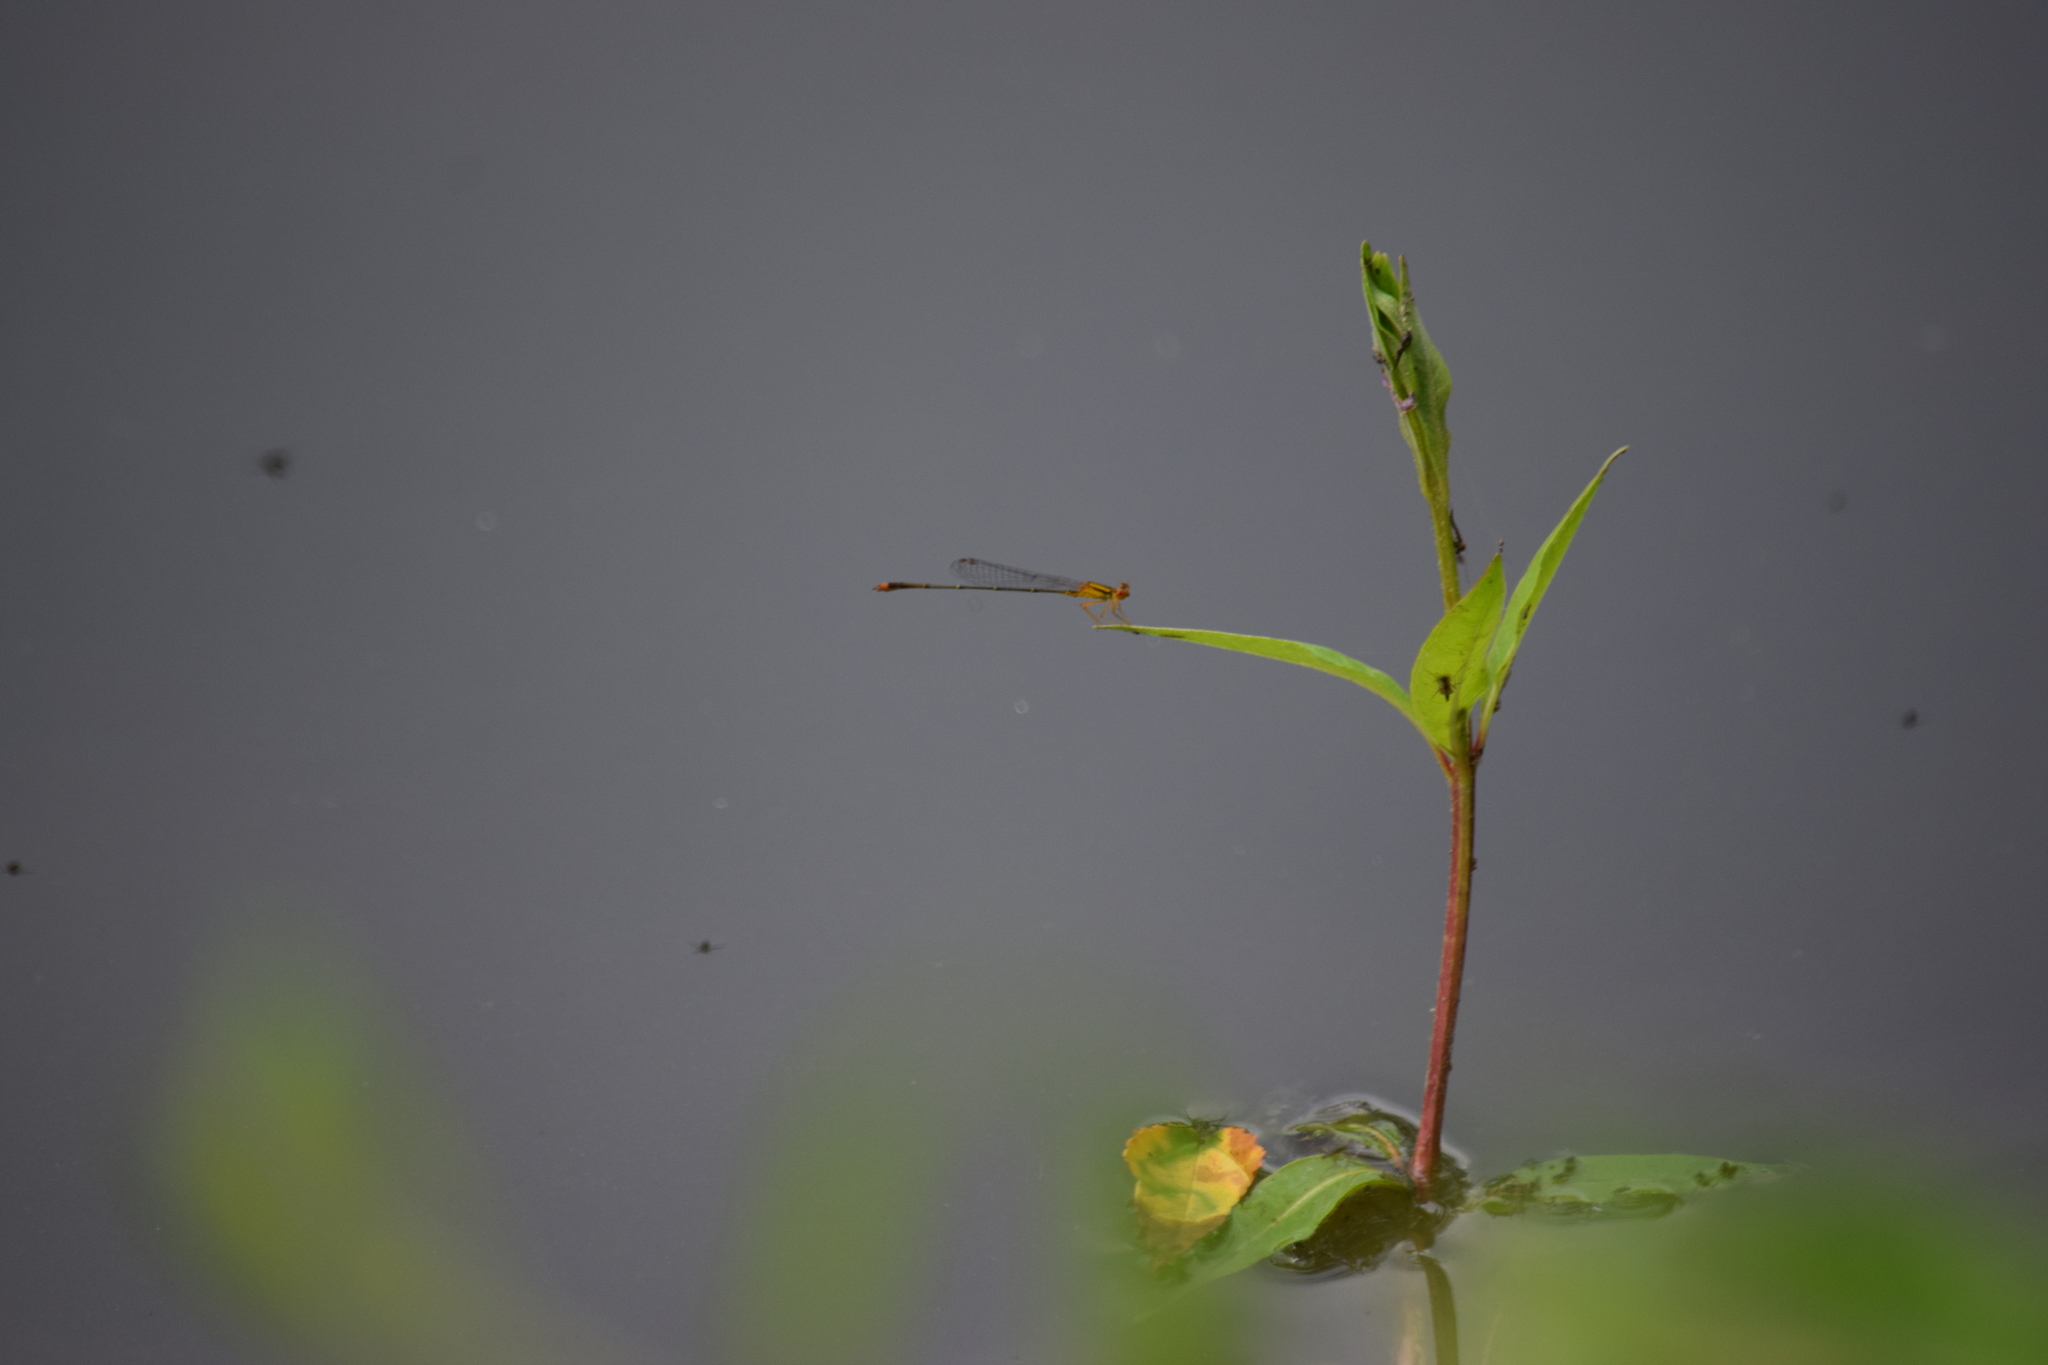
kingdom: Animalia
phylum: Arthropoda
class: Insecta
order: Odonata
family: Coenagrionidae
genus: Enallagma
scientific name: Enallagma signatum
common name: Orange bluet
